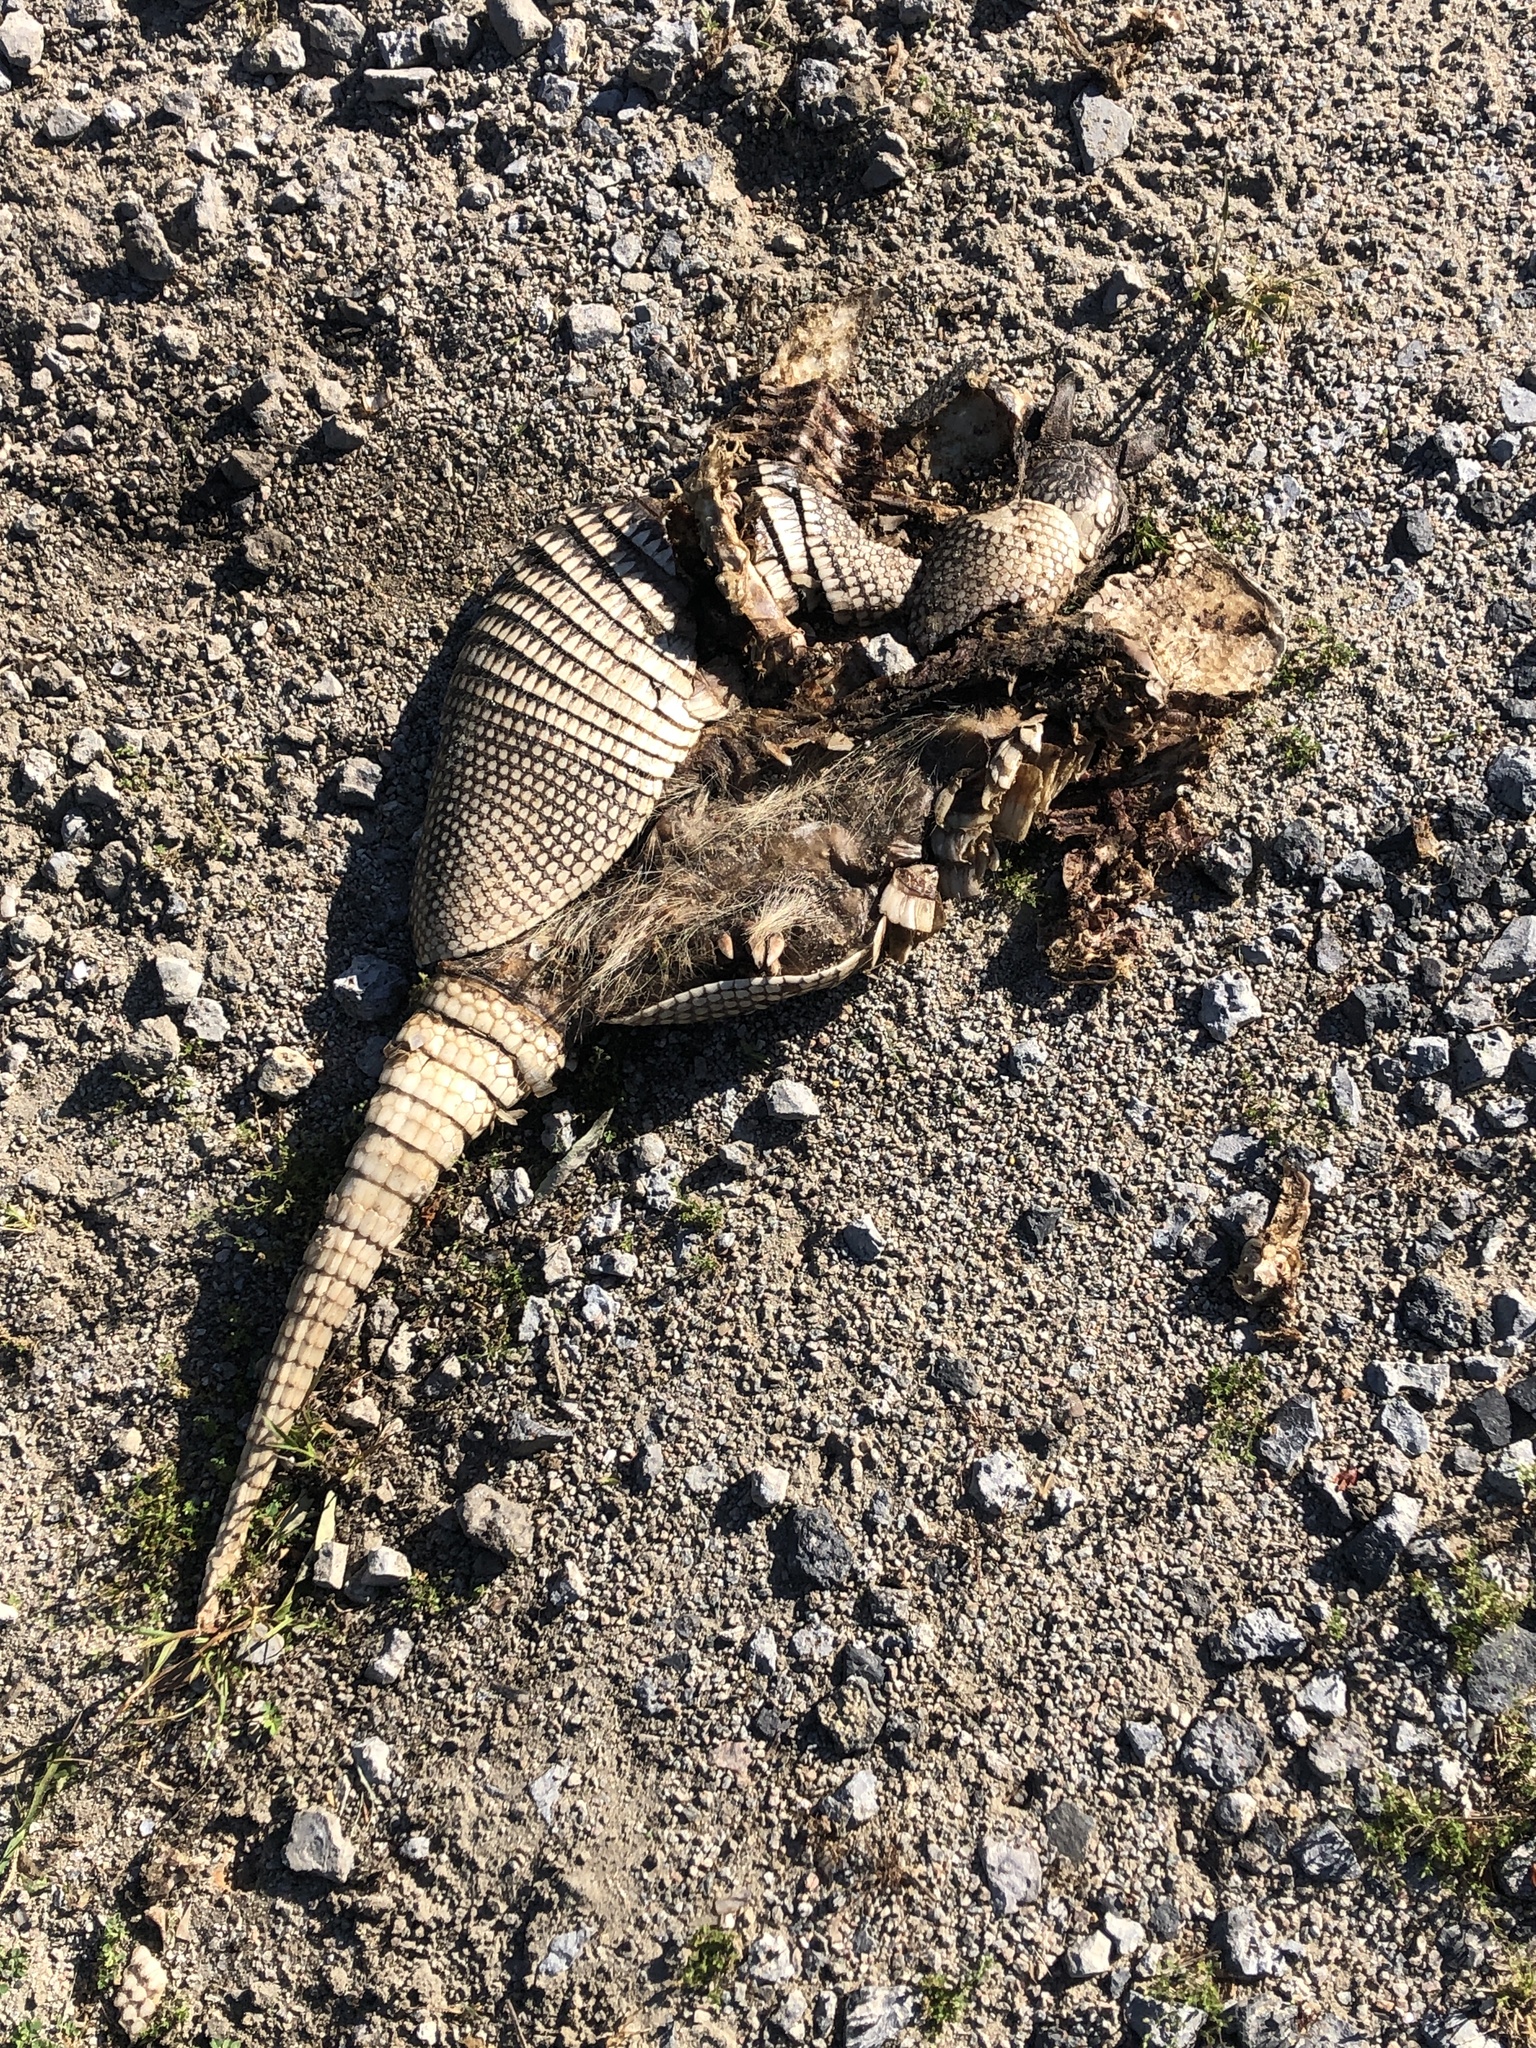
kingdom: Animalia
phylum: Chordata
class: Mammalia
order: Cingulata
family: Dasypodidae
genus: Dasypus
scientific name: Dasypus novemcinctus
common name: Nine-banded armadillo
